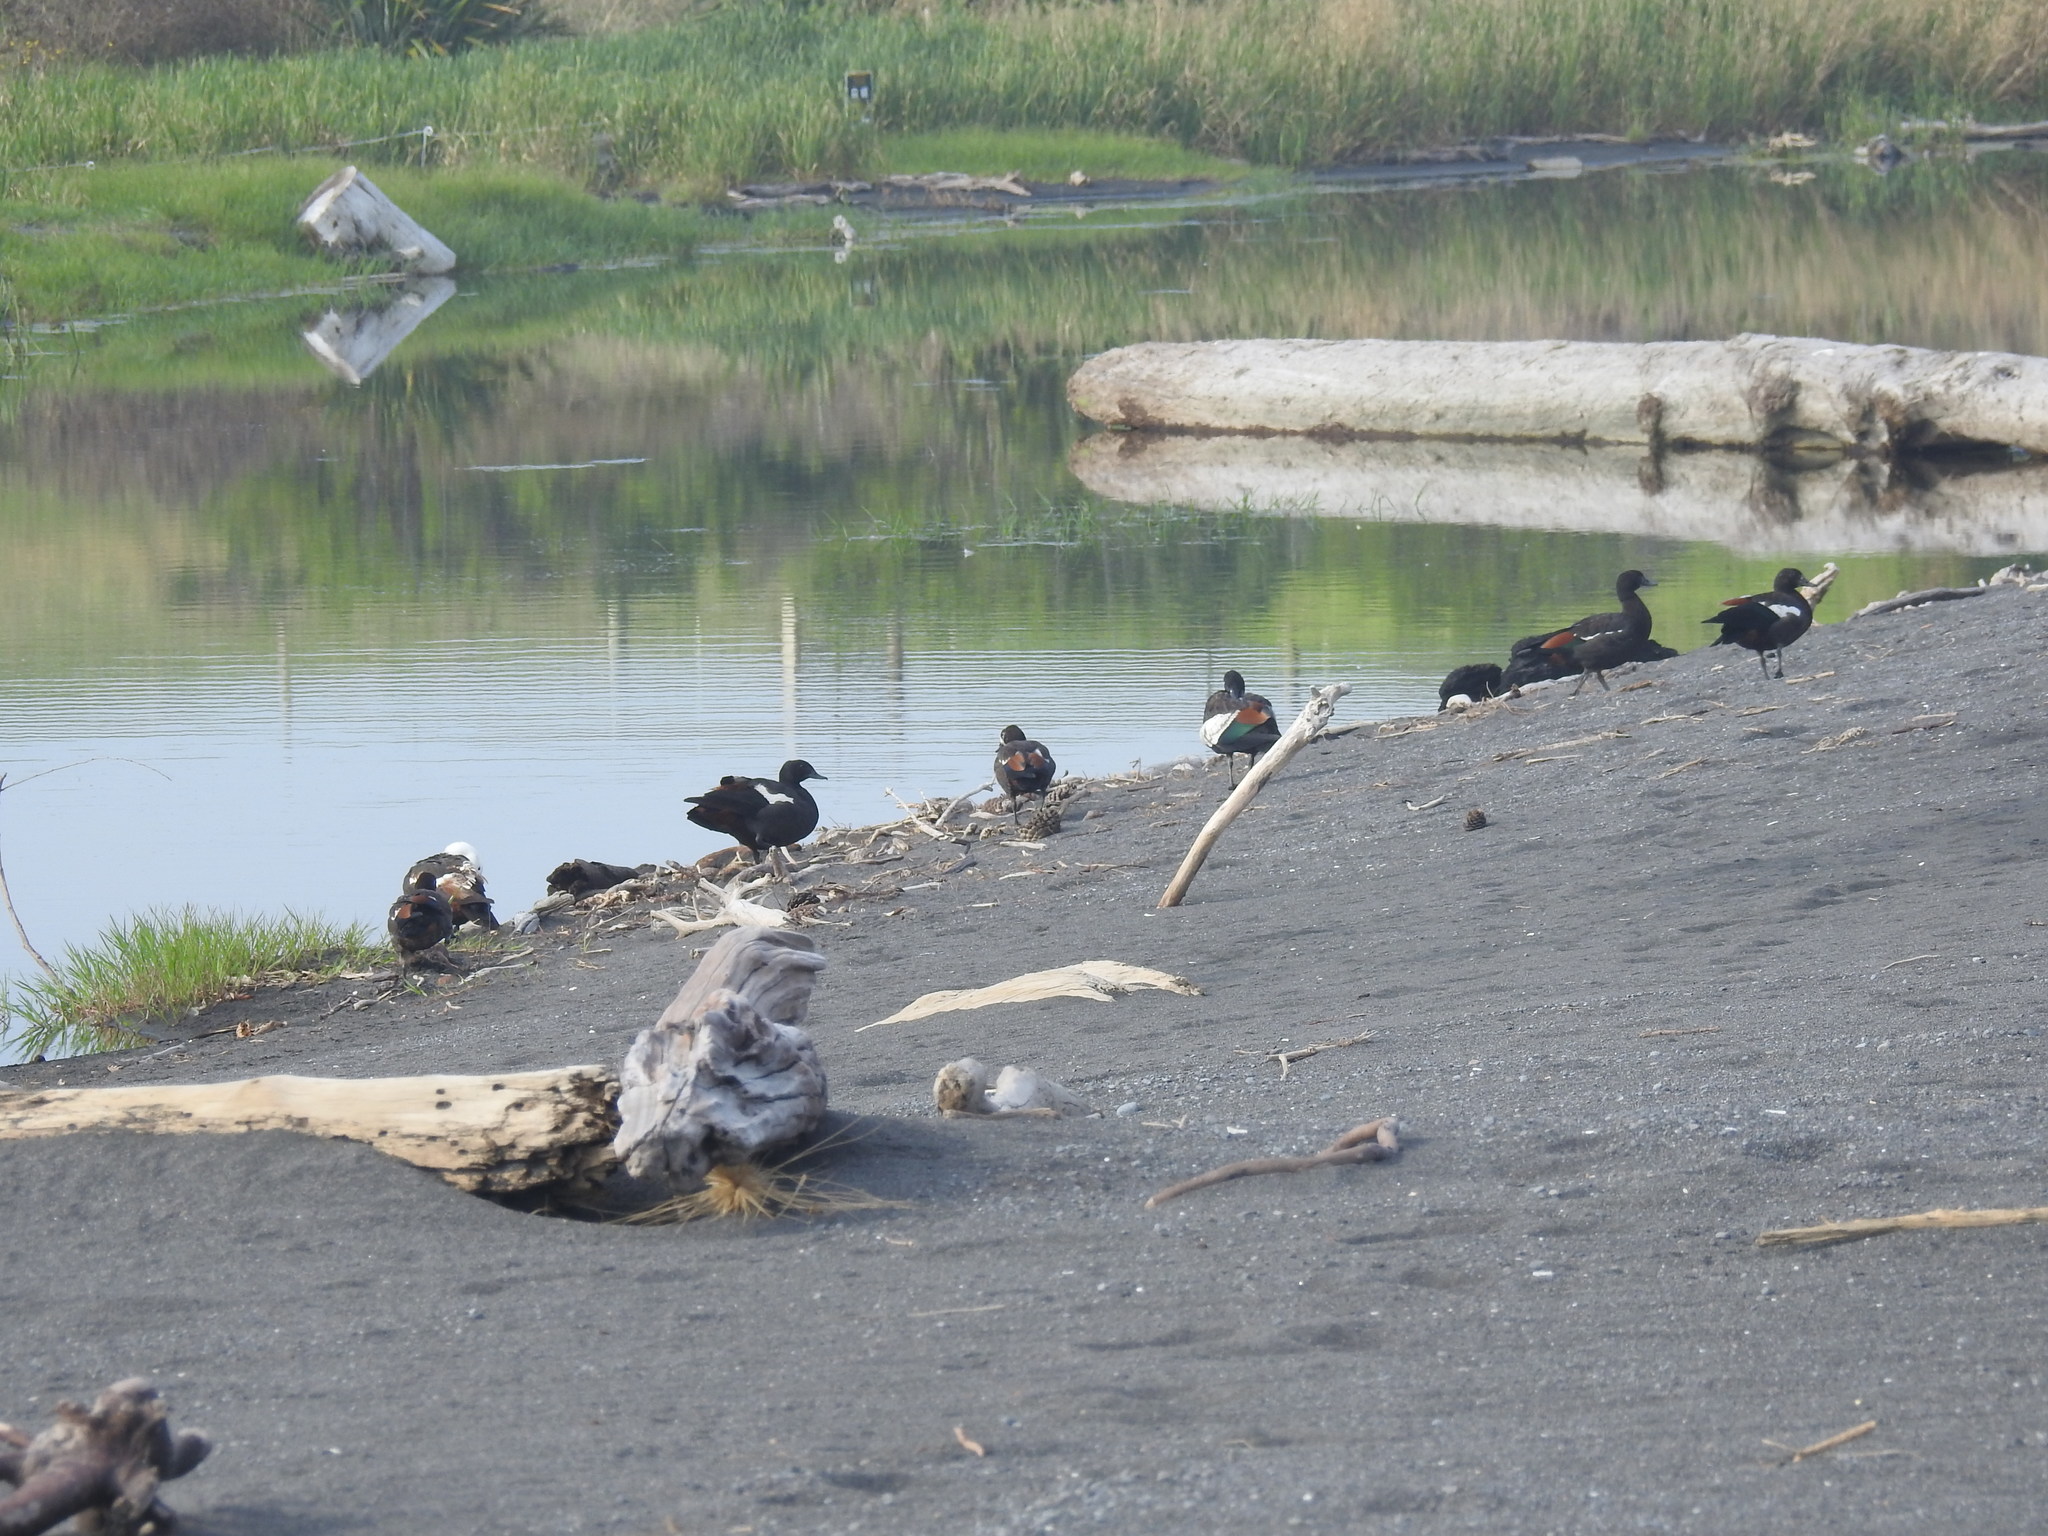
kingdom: Animalia
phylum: Chordata
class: Aves
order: Anseriformes
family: Anatidae
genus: Tadorna
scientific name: Tadorna variegata
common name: Paradise shelduck
